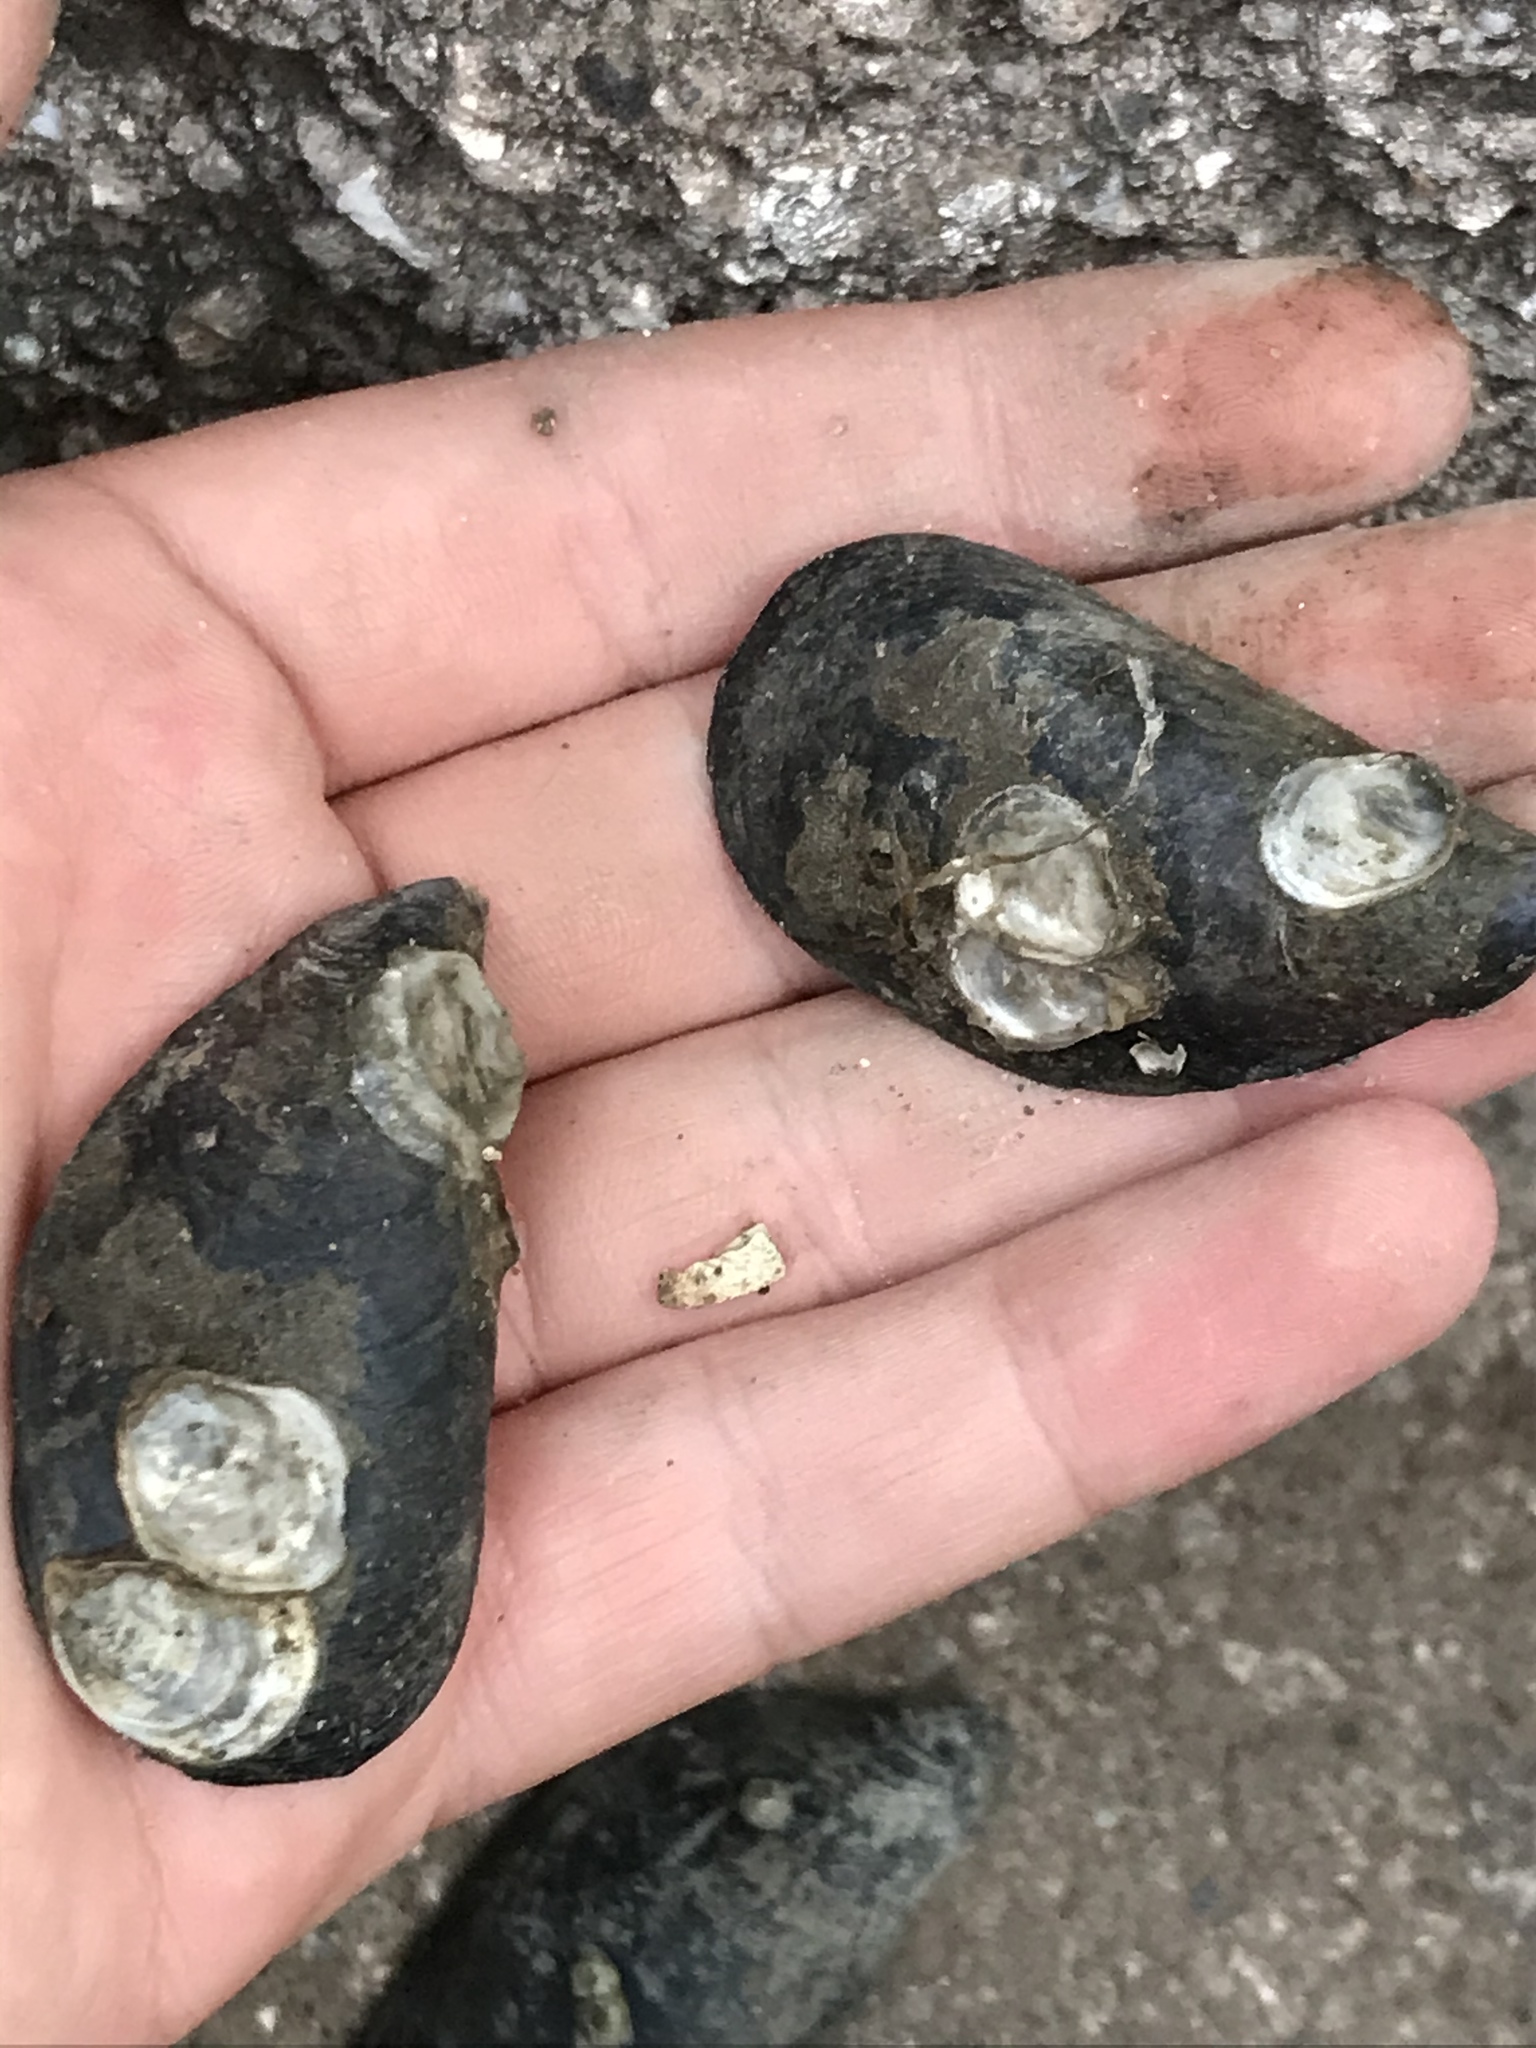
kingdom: Animalia
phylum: Mollusca
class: Bivalvia
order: Mytilida
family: Mytilidae
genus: Mytilus
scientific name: Mytilus
